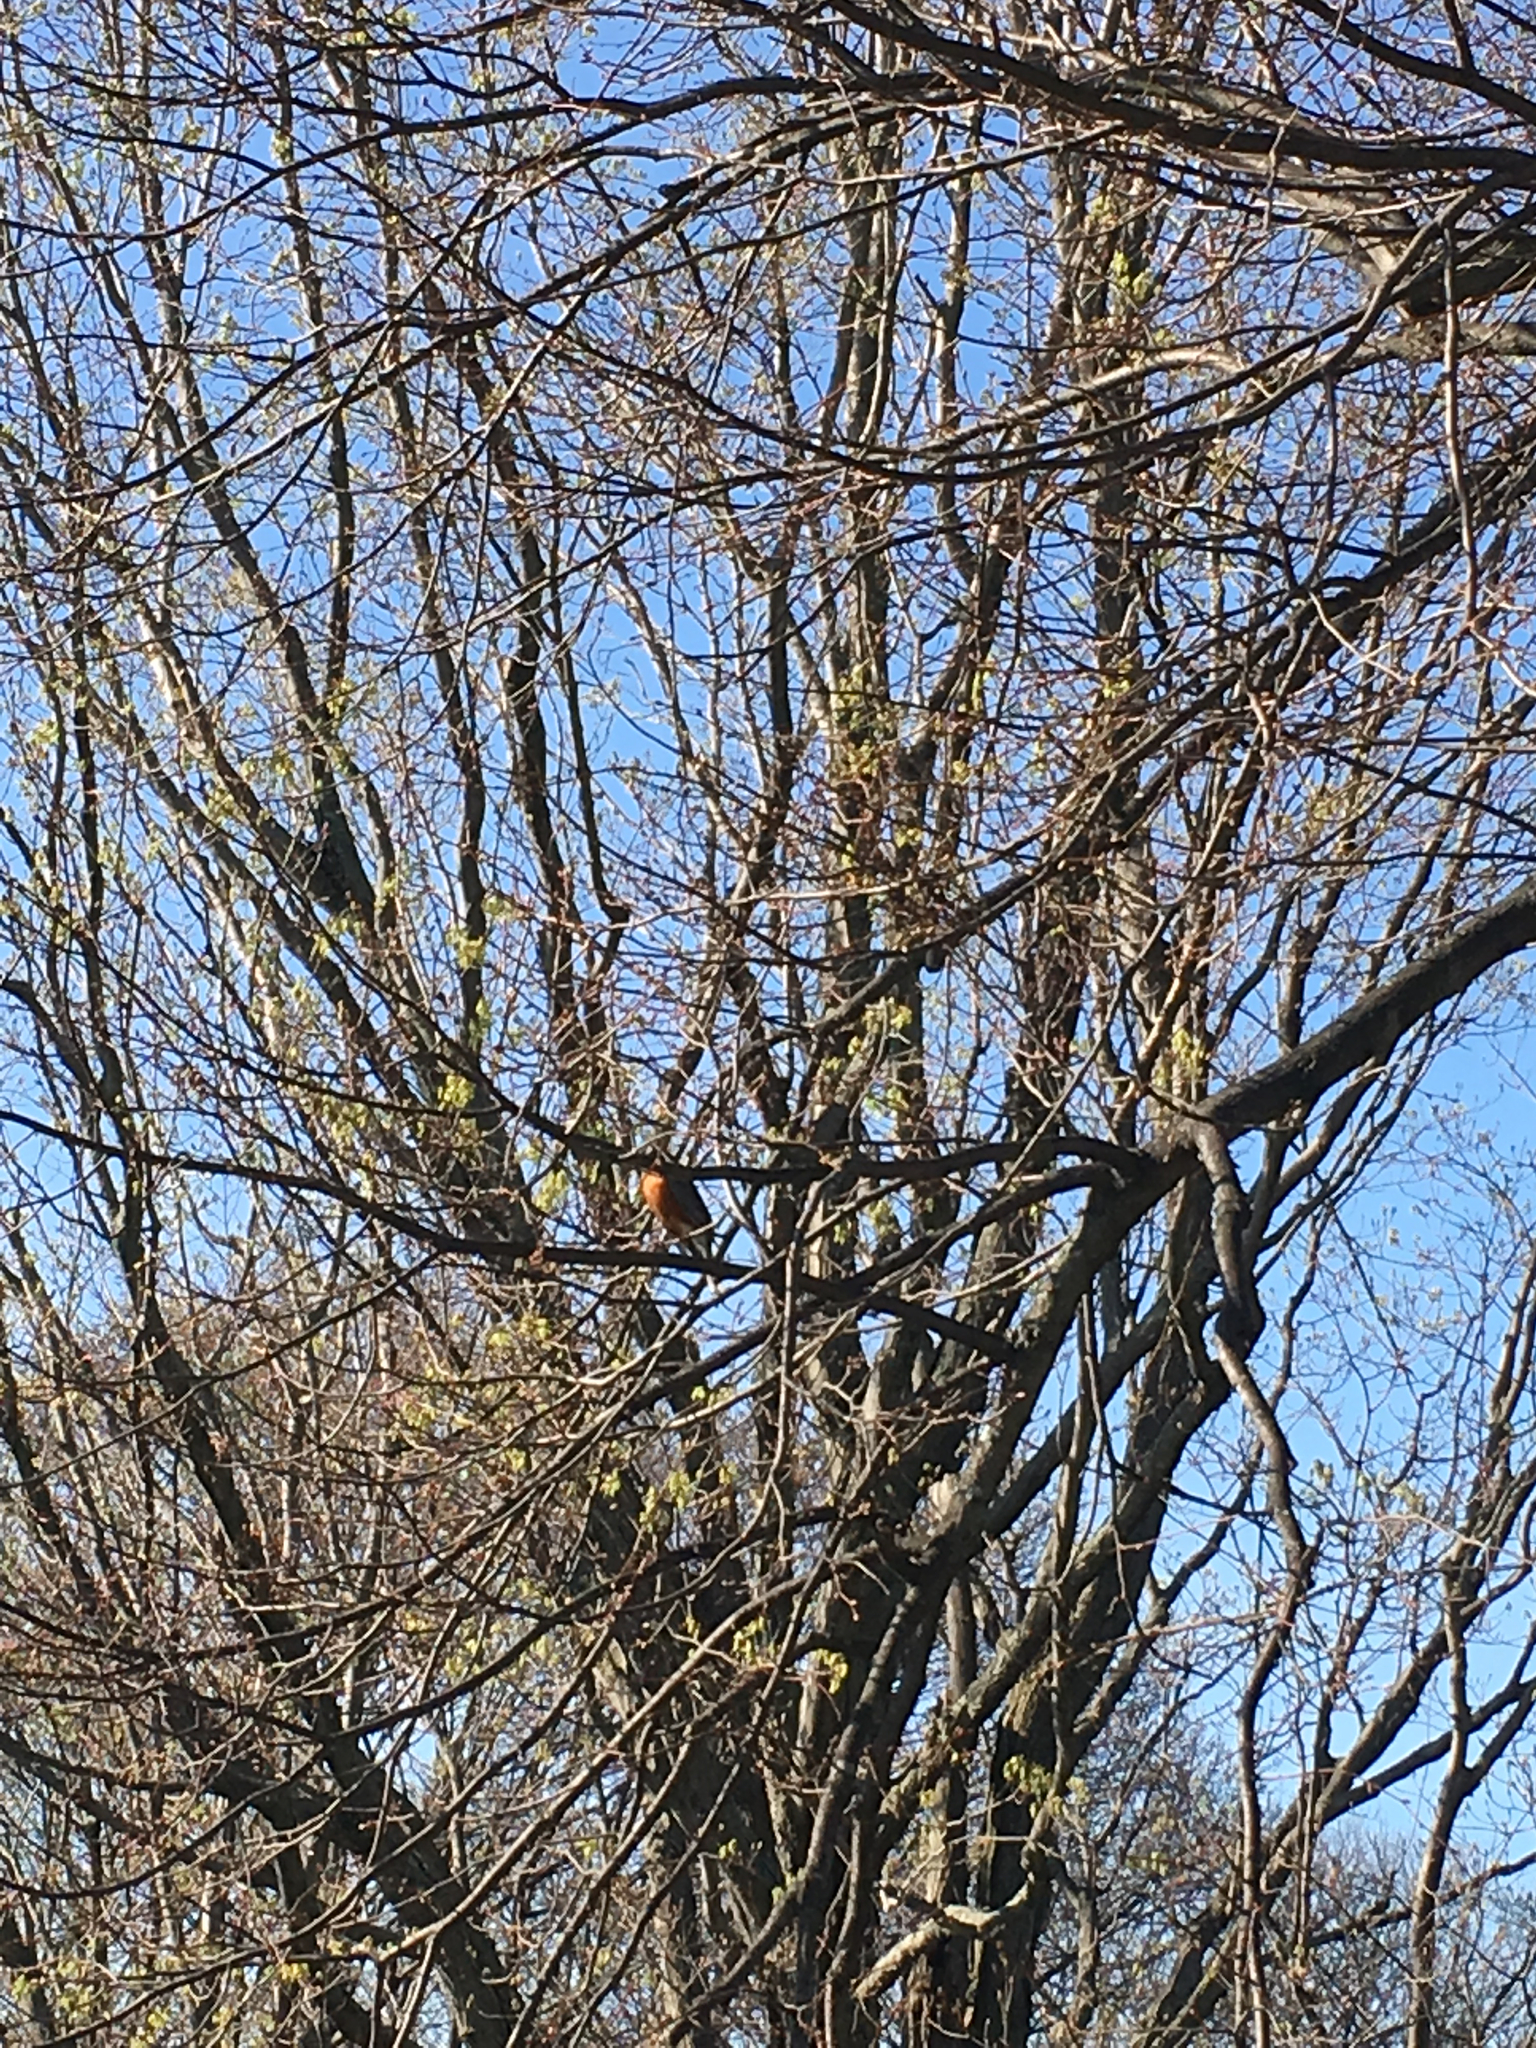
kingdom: Animalia
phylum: Chordata
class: Aves
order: Passeriformes
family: Turdidae
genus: Turdus
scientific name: Turdus migratorius
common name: American robin
